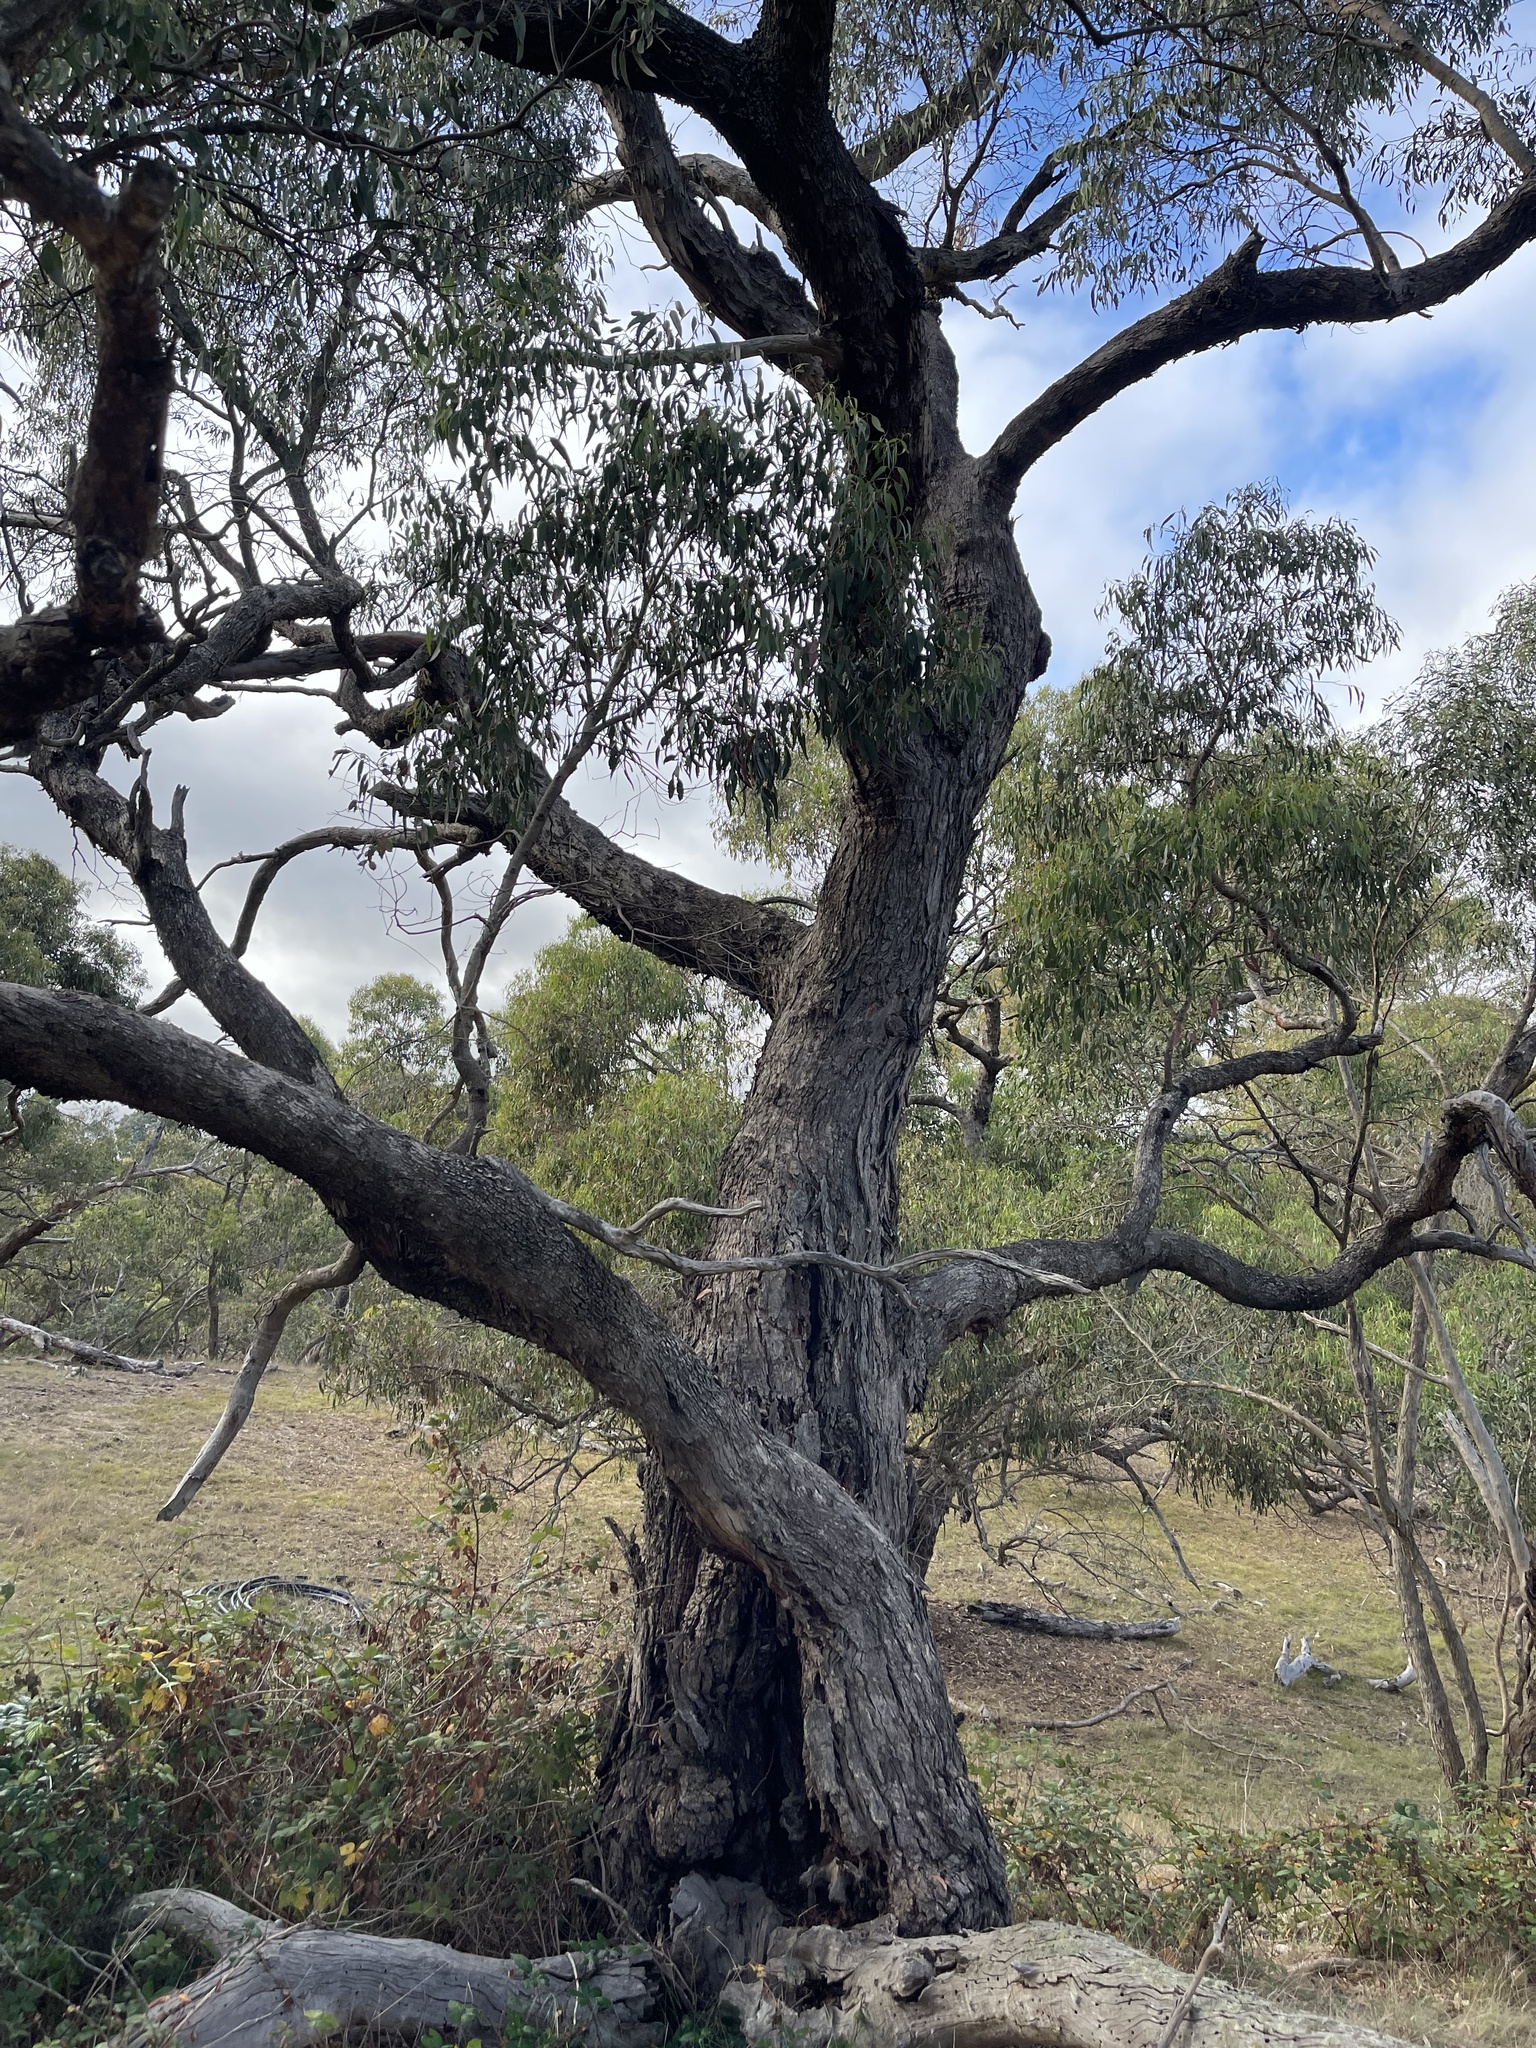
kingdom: Plantae
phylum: Tracheophyta
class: Magnoliopsida
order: Myrtales
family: Myrtaceae
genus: Eucalyptus
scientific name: Eucalyptus goniocalyx
